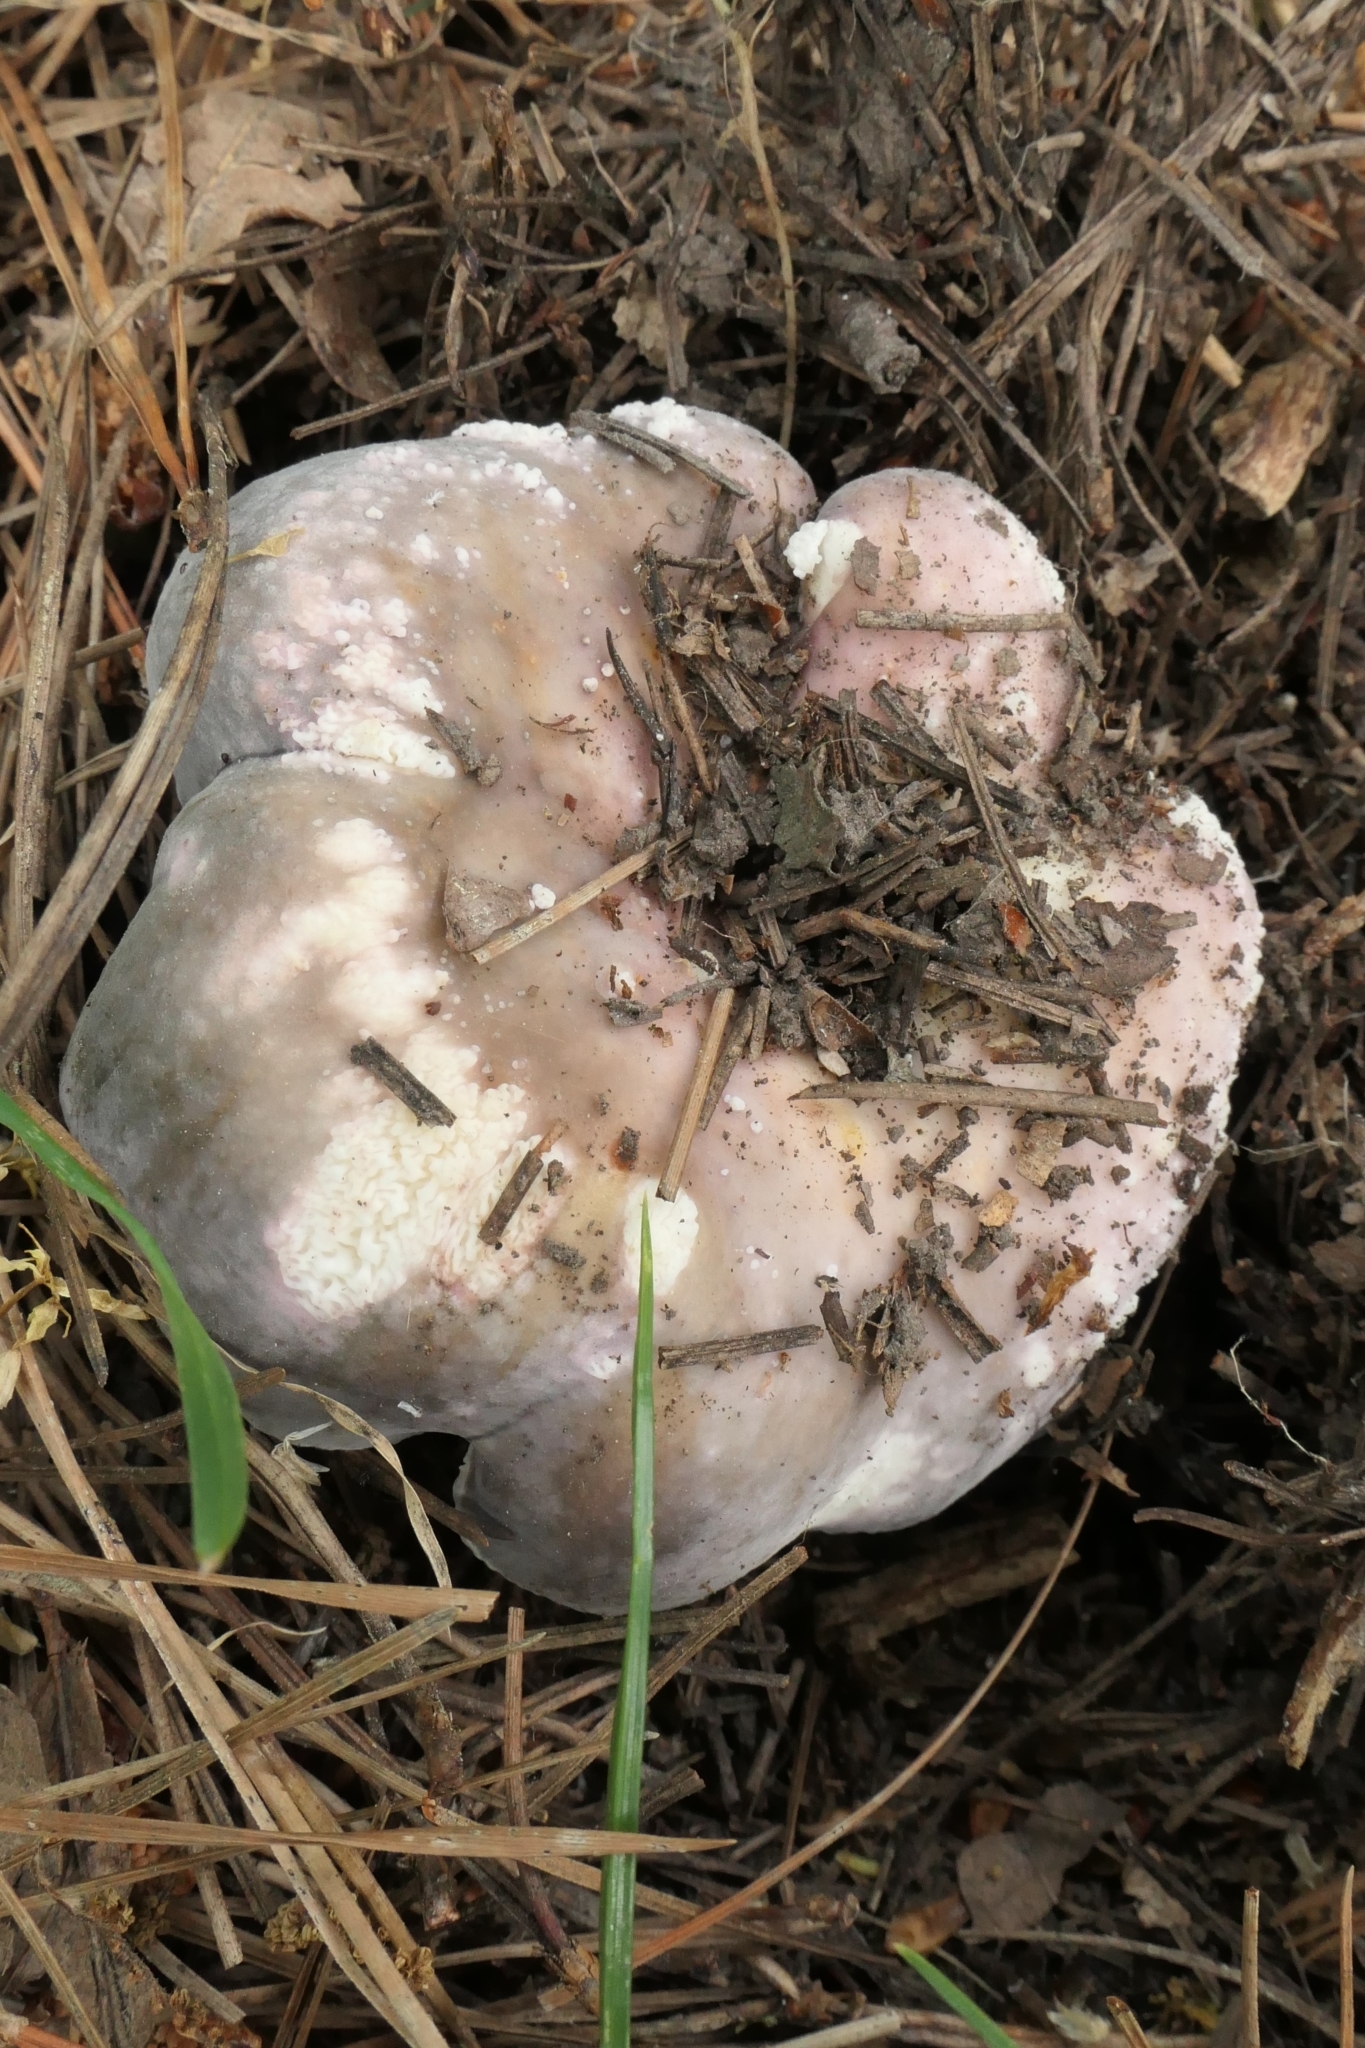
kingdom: Fungi
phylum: Basidiomycota
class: Agaricomycetes
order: Russulales
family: Russulaceae
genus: Russula
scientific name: Russula ionochlora
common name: Marbled brittlegill
